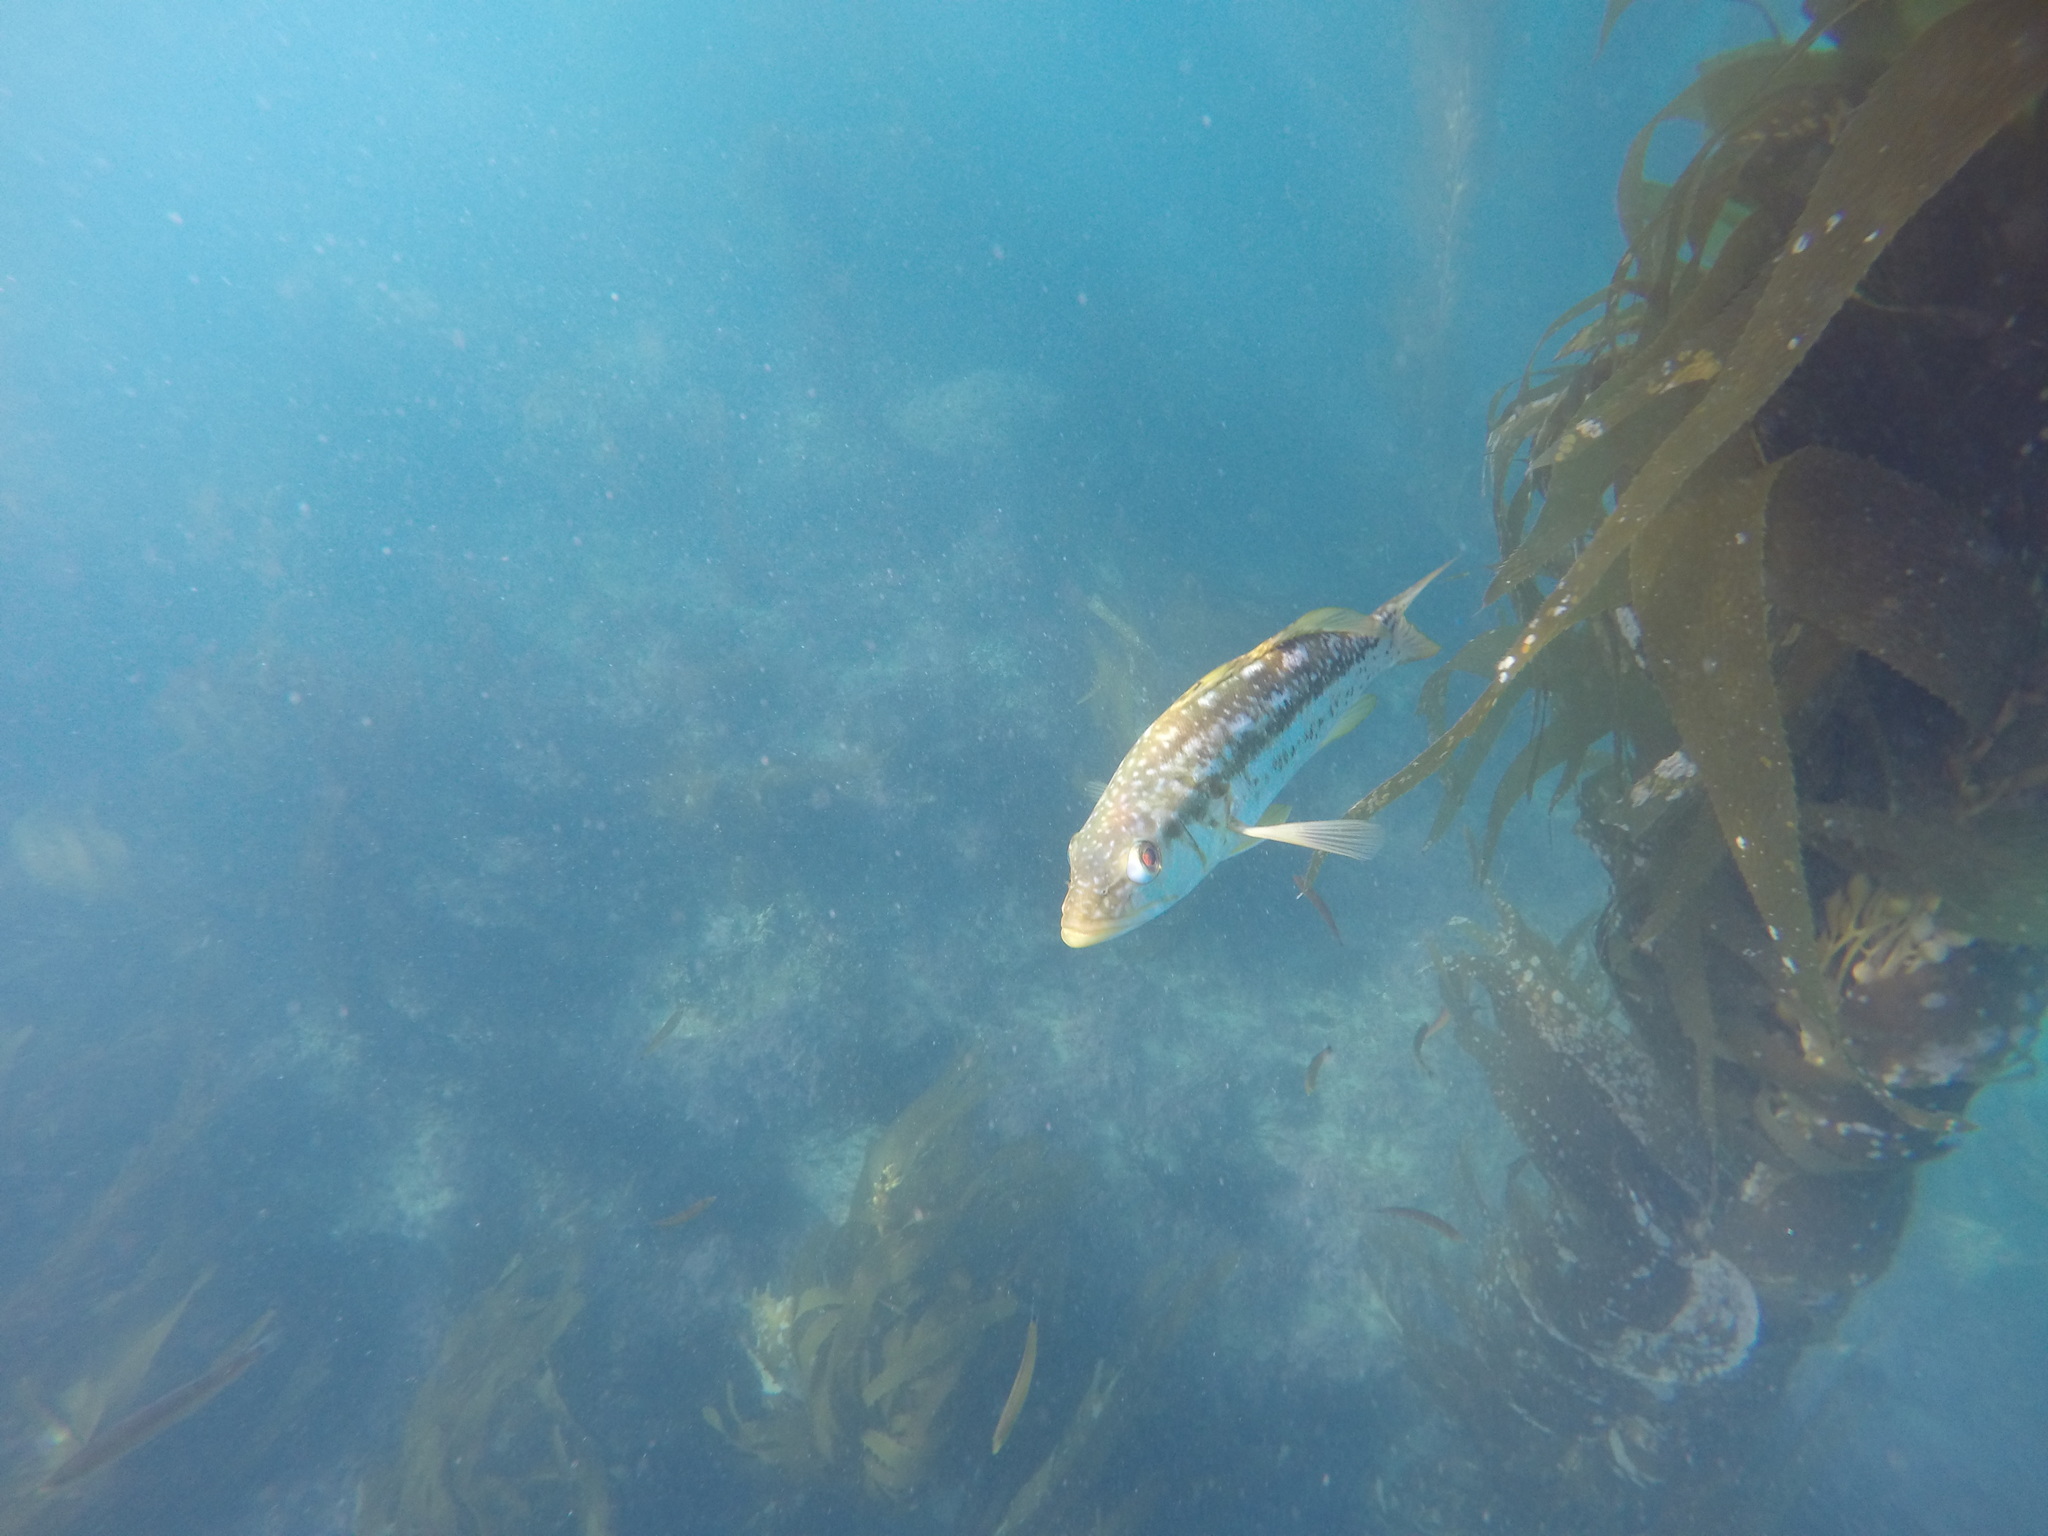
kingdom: Animalia
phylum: Chordata
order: Perciformes
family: Serranidae
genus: Paralabrax
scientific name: Paralabrax clathratus
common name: Kelp bass
